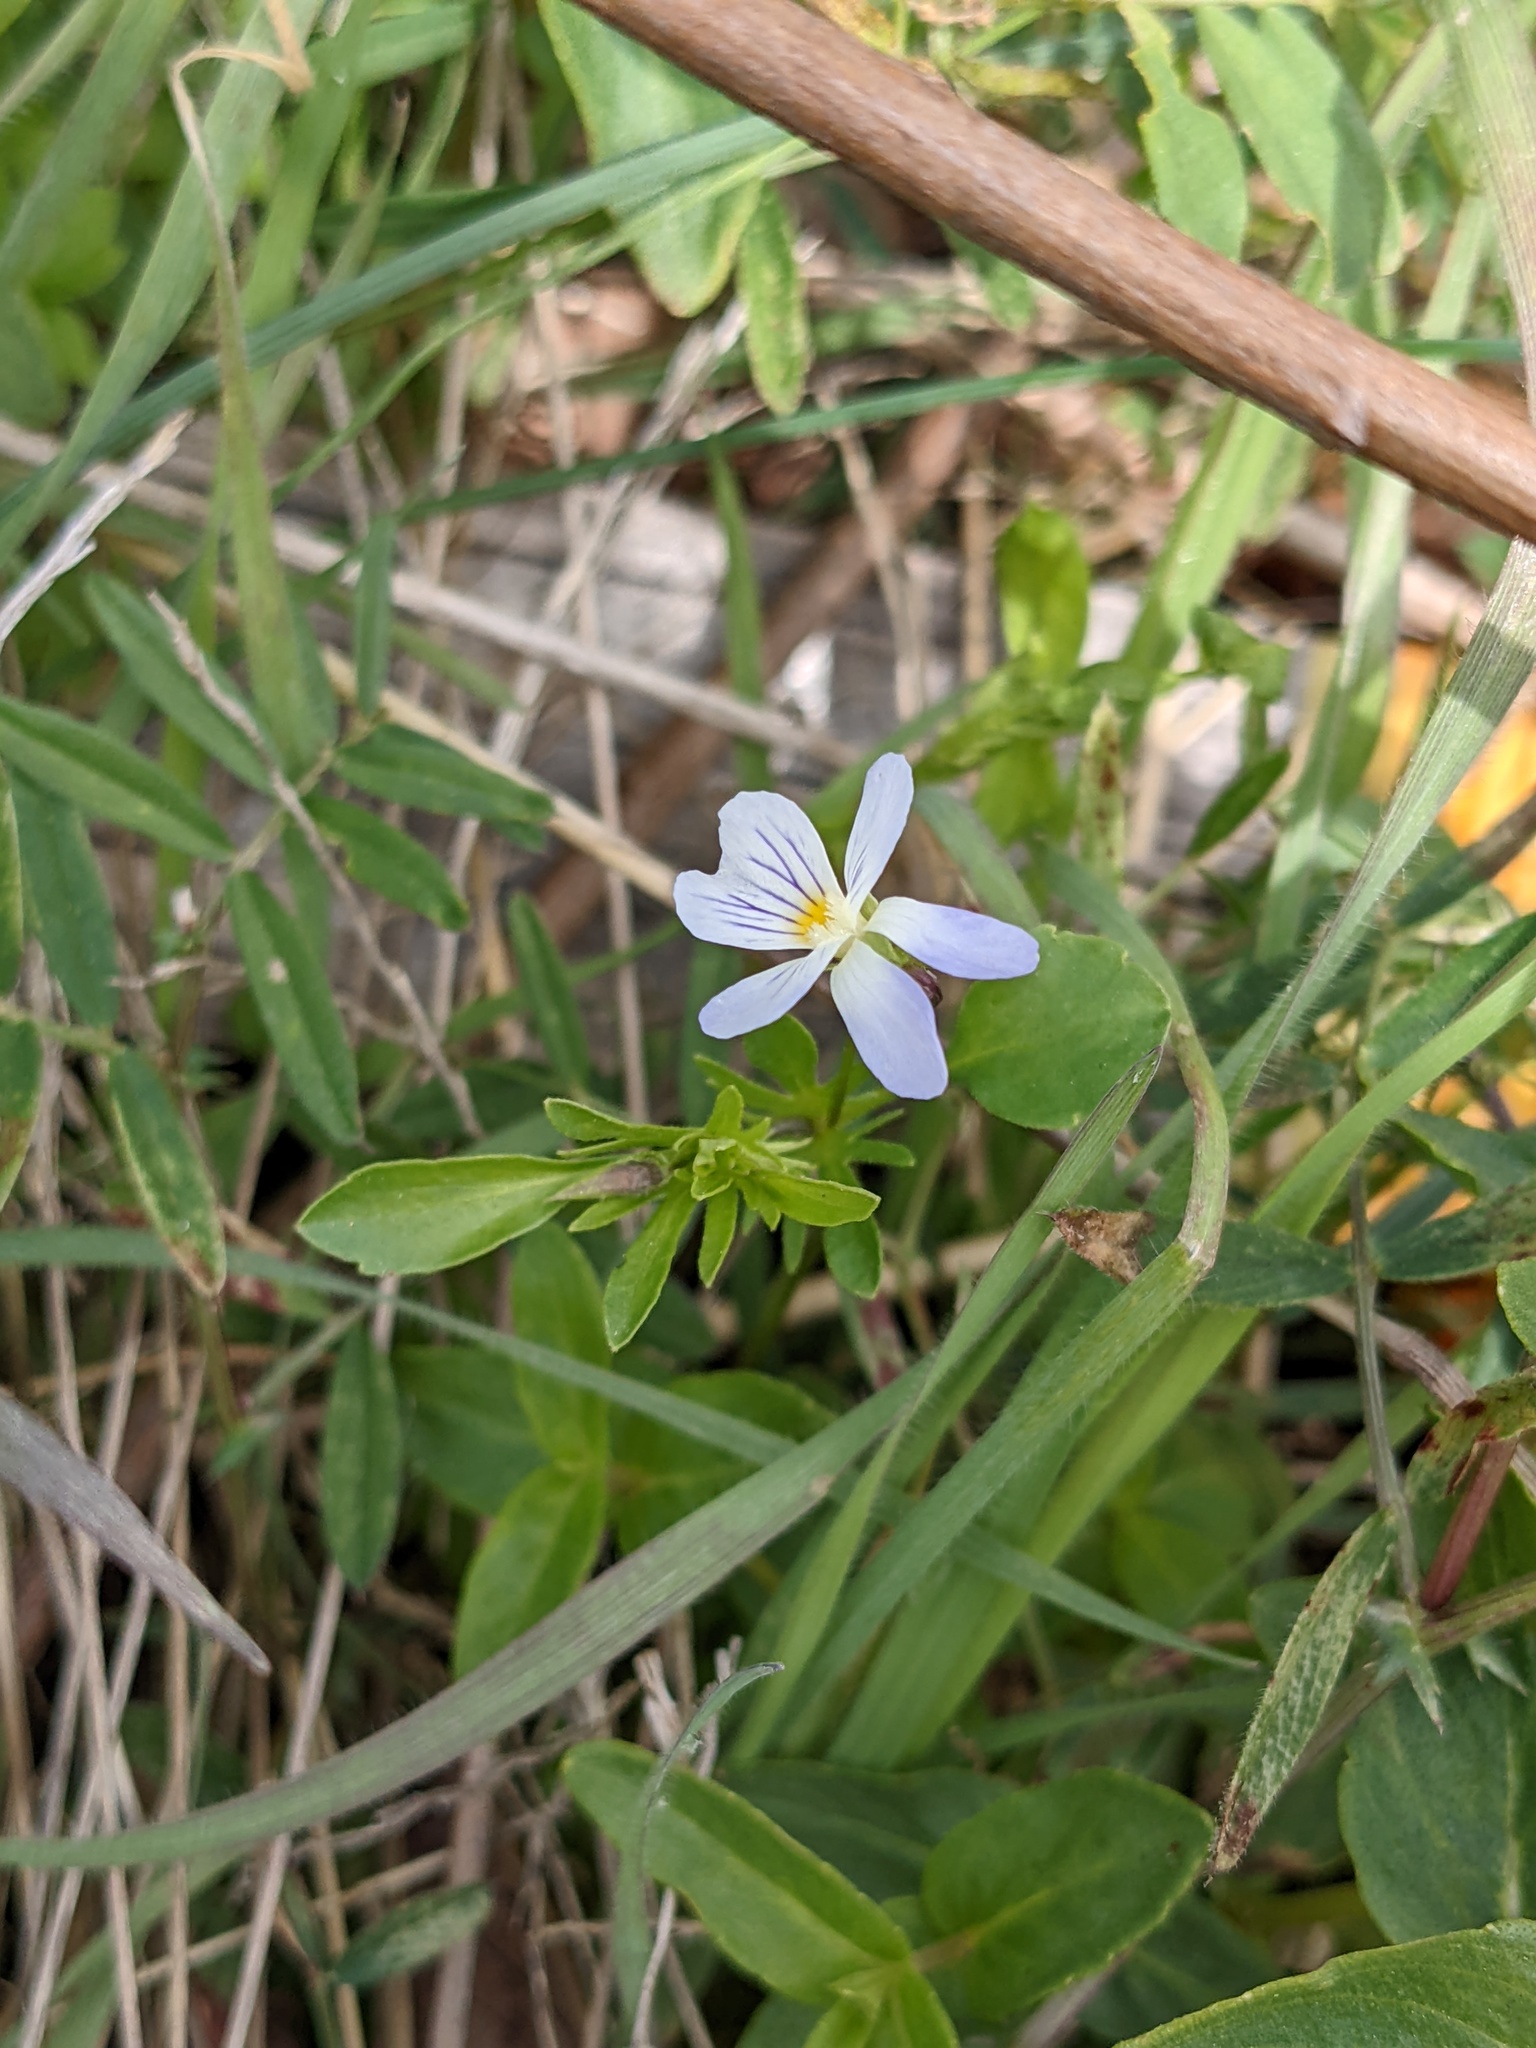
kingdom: Plantae
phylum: Tracheophyta
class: Magnoliopsida
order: Malpighiales
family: Violaceae
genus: Viola
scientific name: Viola rafinesquei
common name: American field pansy
